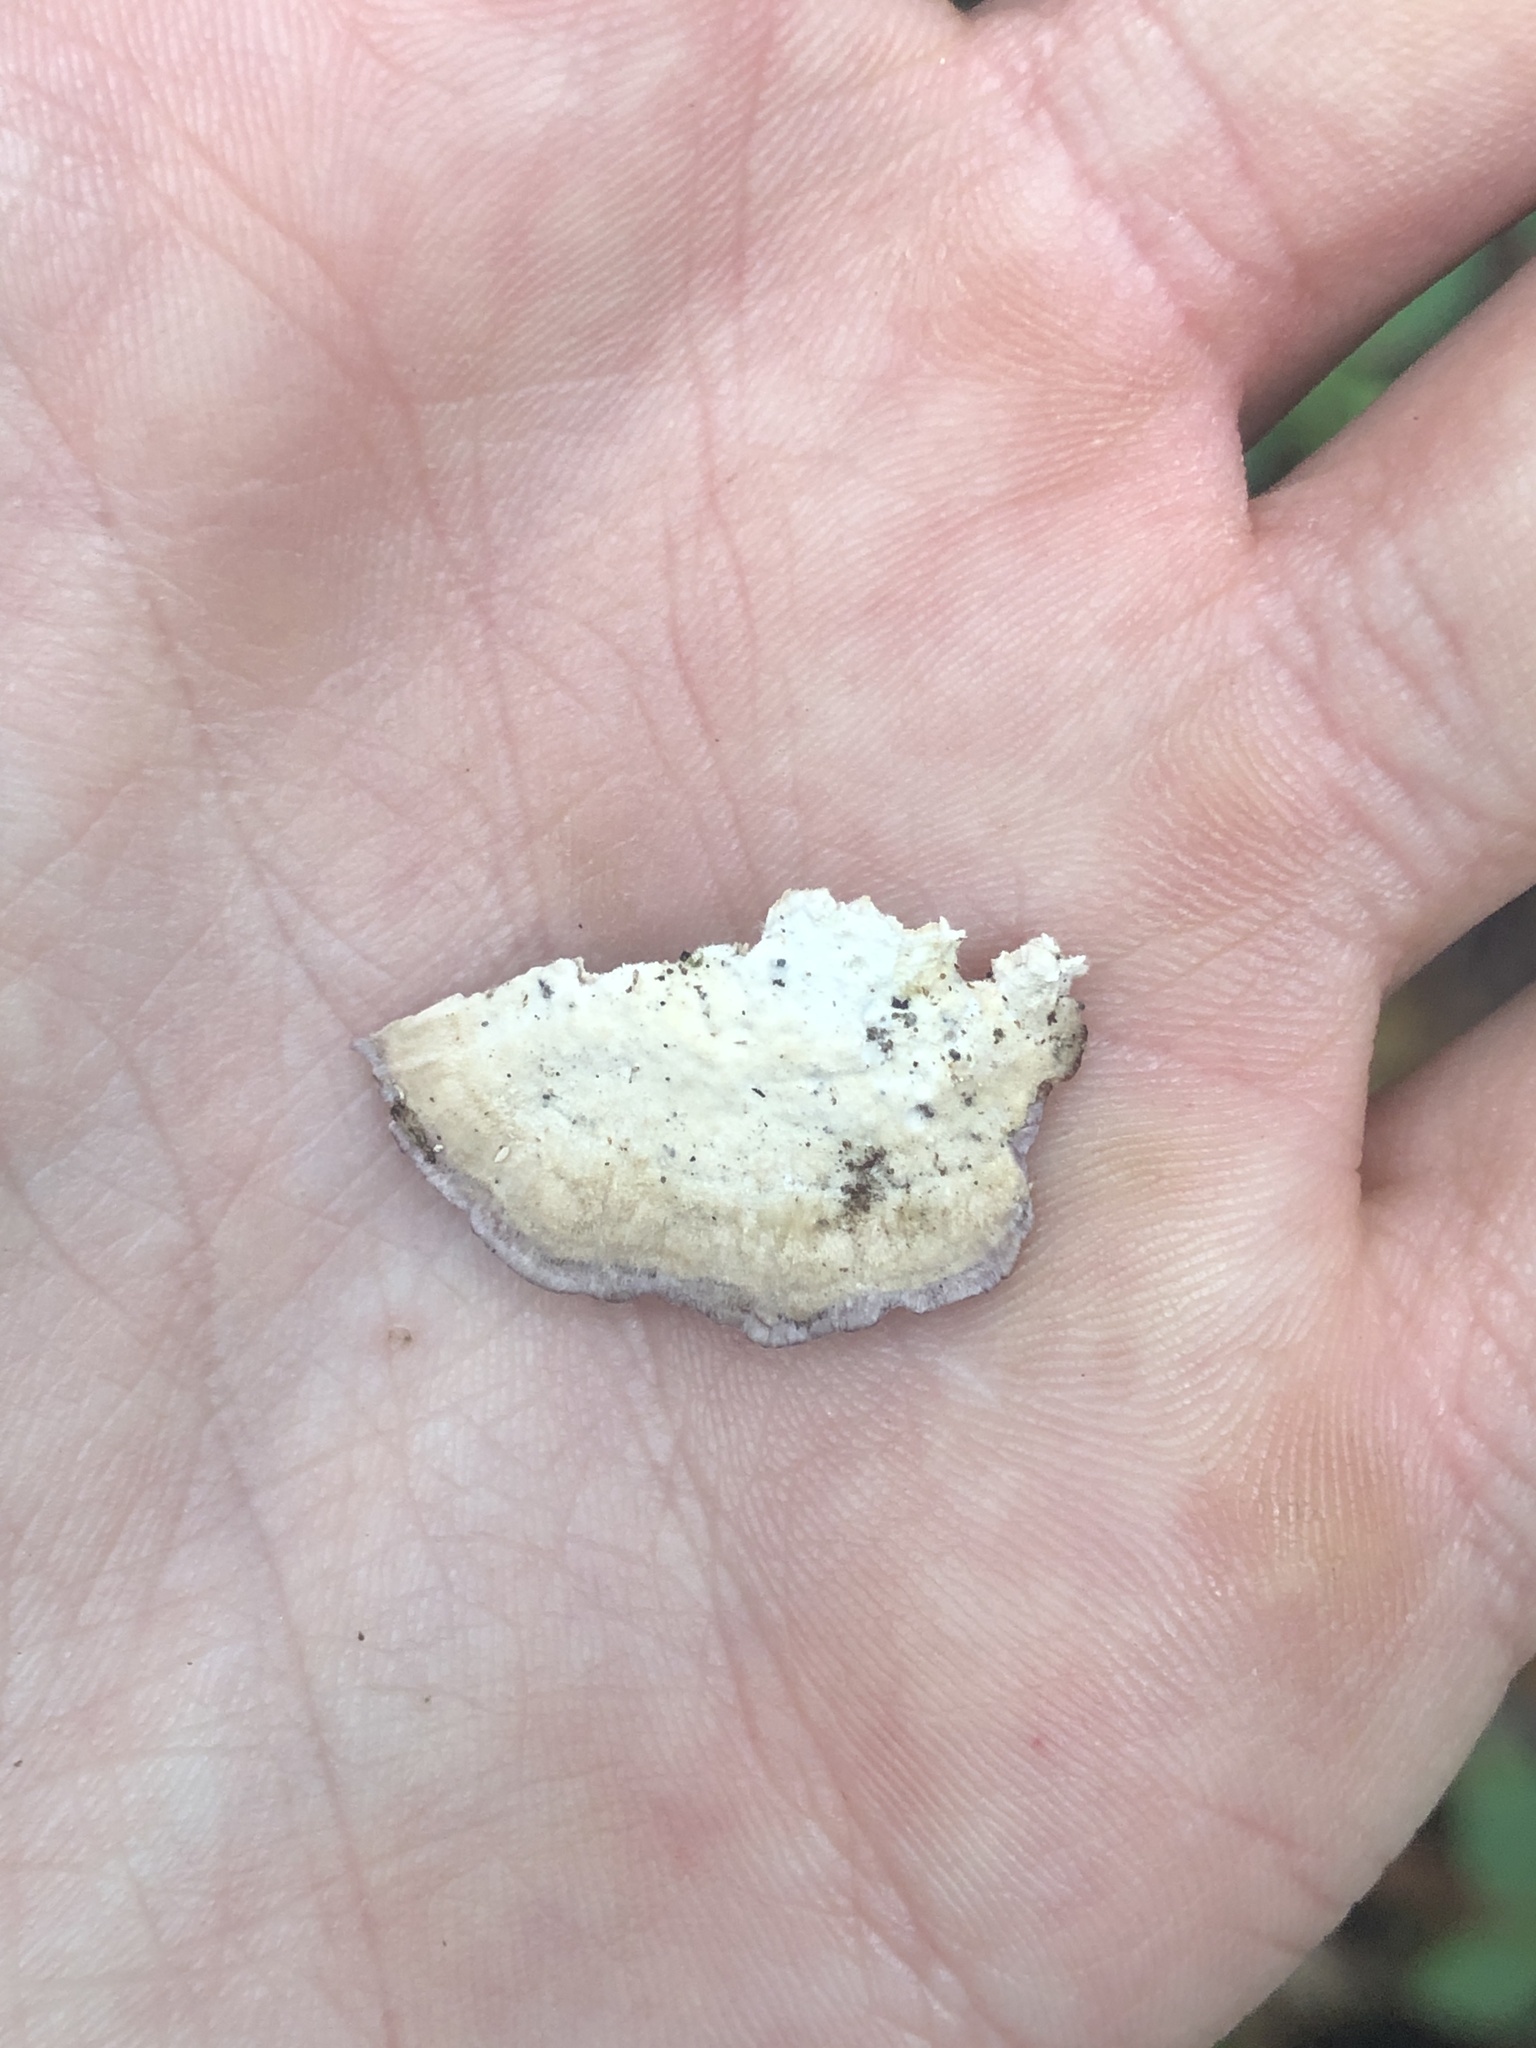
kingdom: Fungi
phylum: Basidiomycota
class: Agaricomycetes
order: Hymenochaetales
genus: Trichaptum
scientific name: Trichaptum biforme
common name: Violet-toothed polypore
